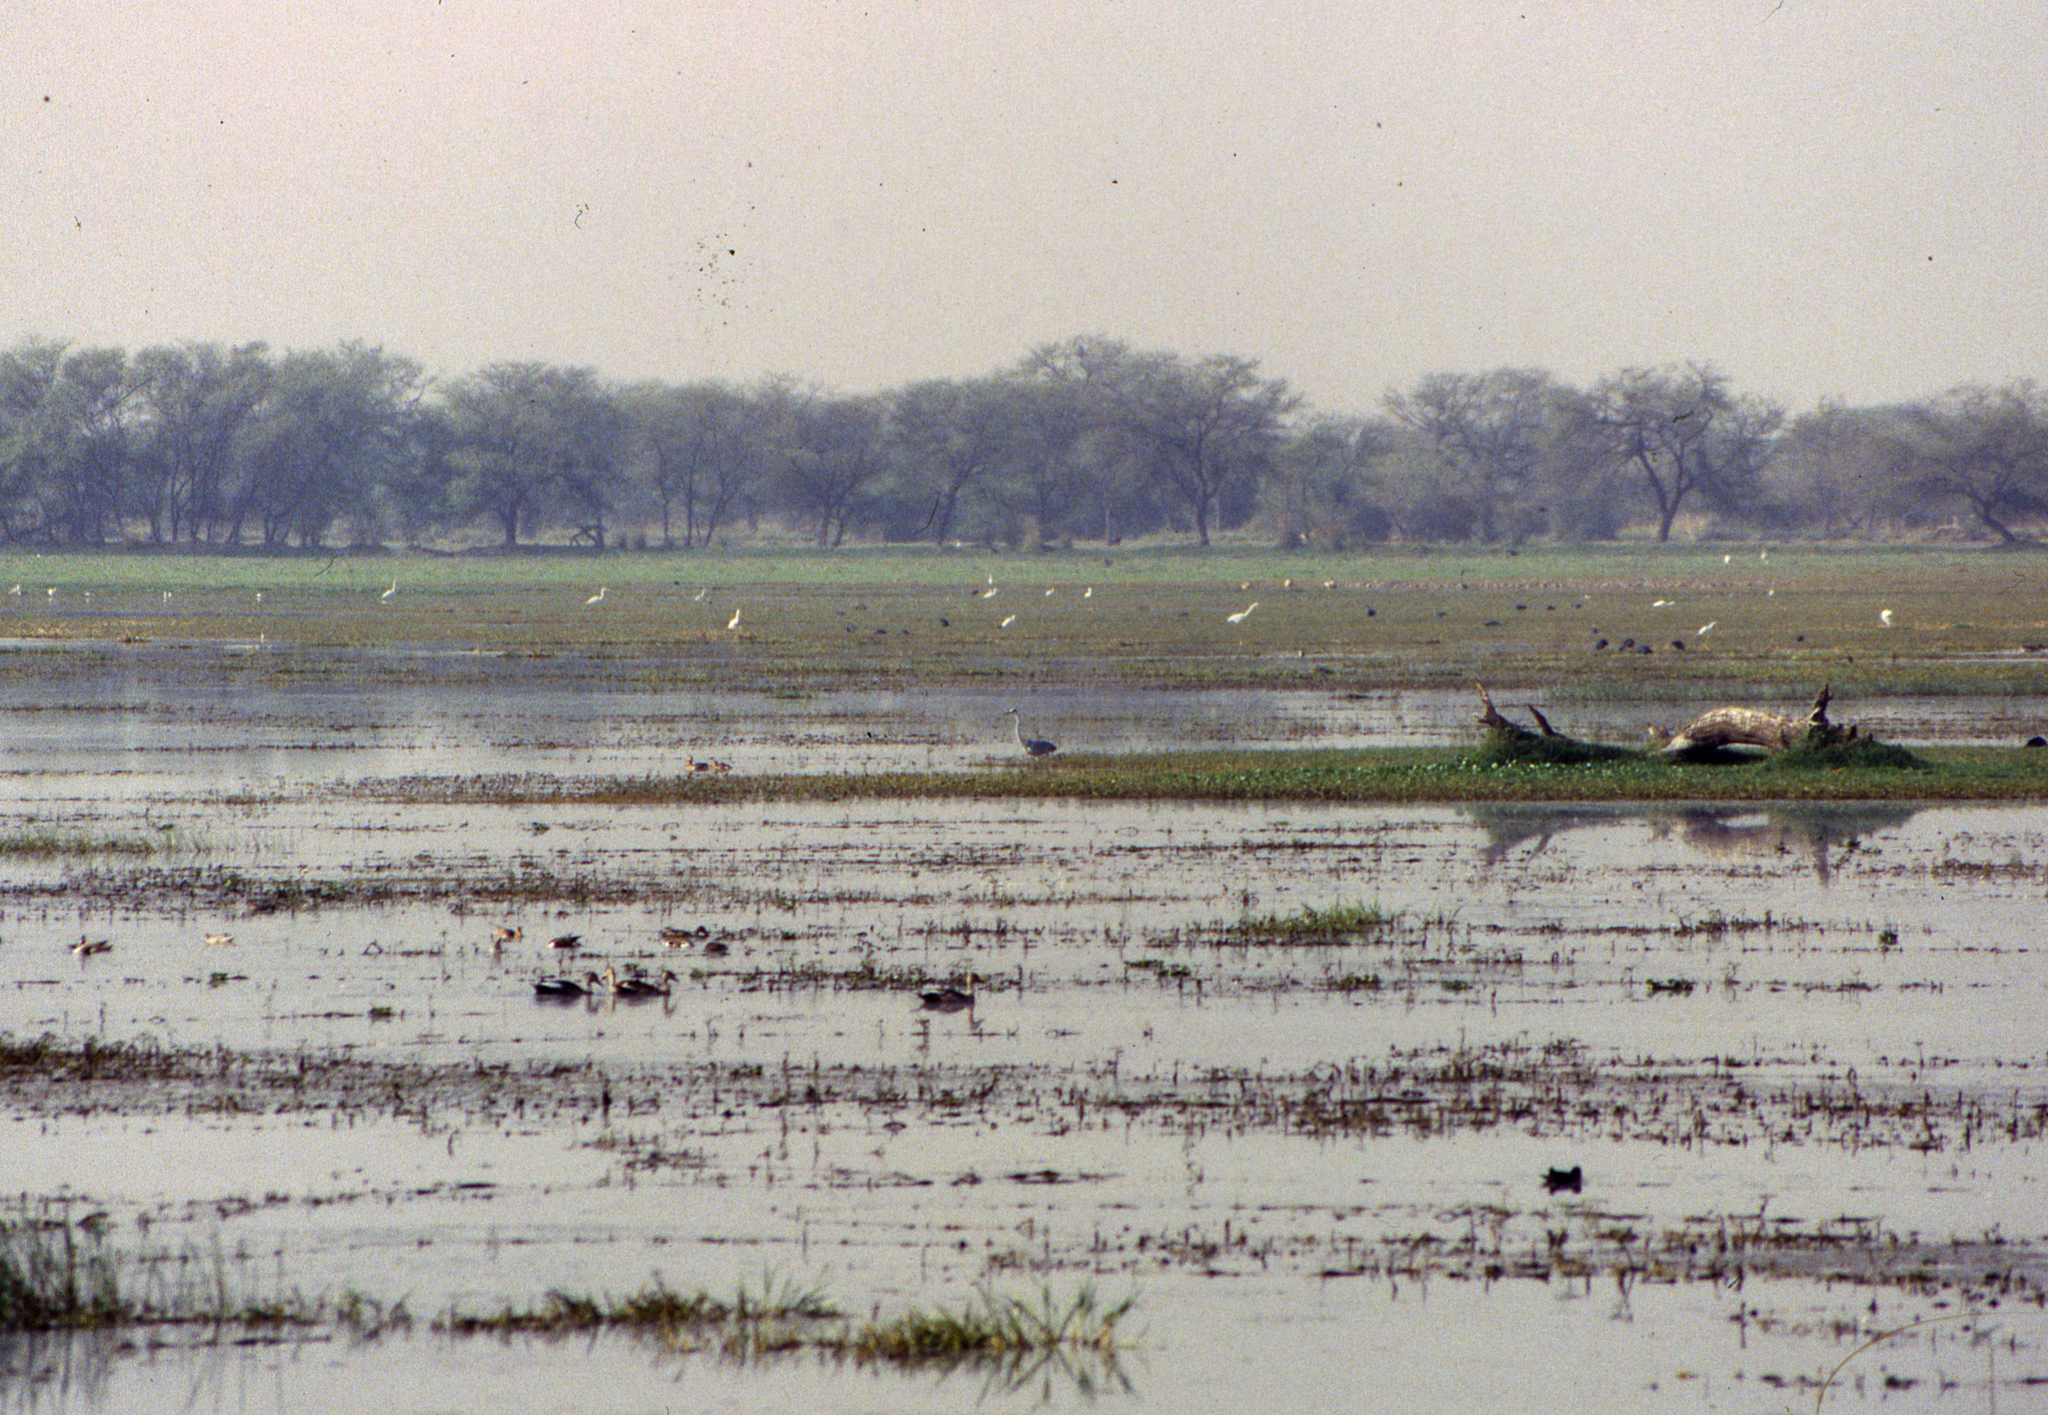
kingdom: Animalia
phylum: Chordata
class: Aves
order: Pelecaniformes
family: Ardeidae
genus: Ardea
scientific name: Ardea cinerea
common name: Grey heron
